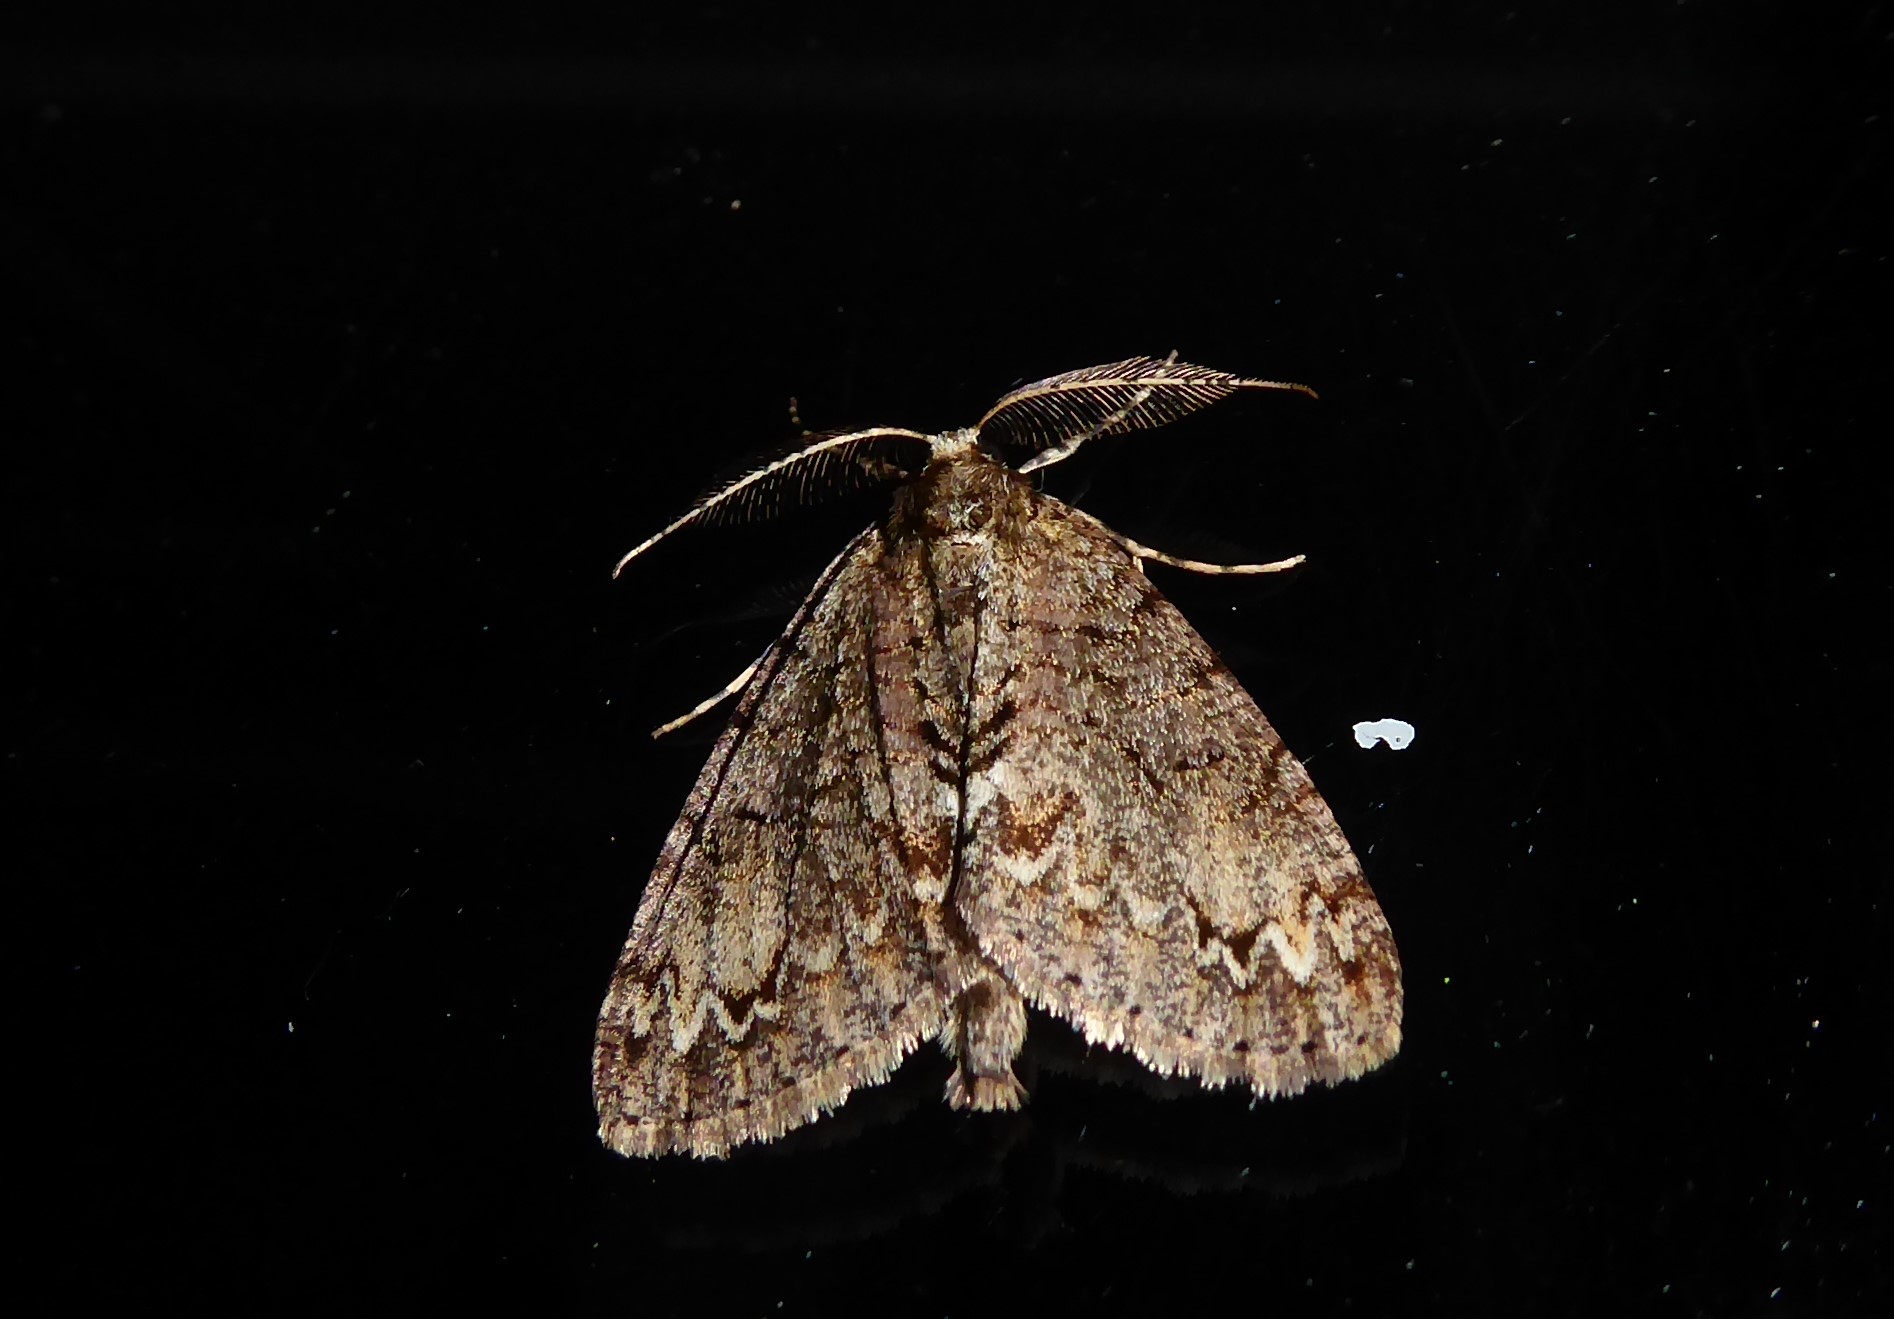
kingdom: Animalia
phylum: Arthropoda
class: Insecta
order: Lepidoptera
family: Geometridae
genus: Pseudocoremia
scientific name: Pseudocoremia suavis
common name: Common forest looper
